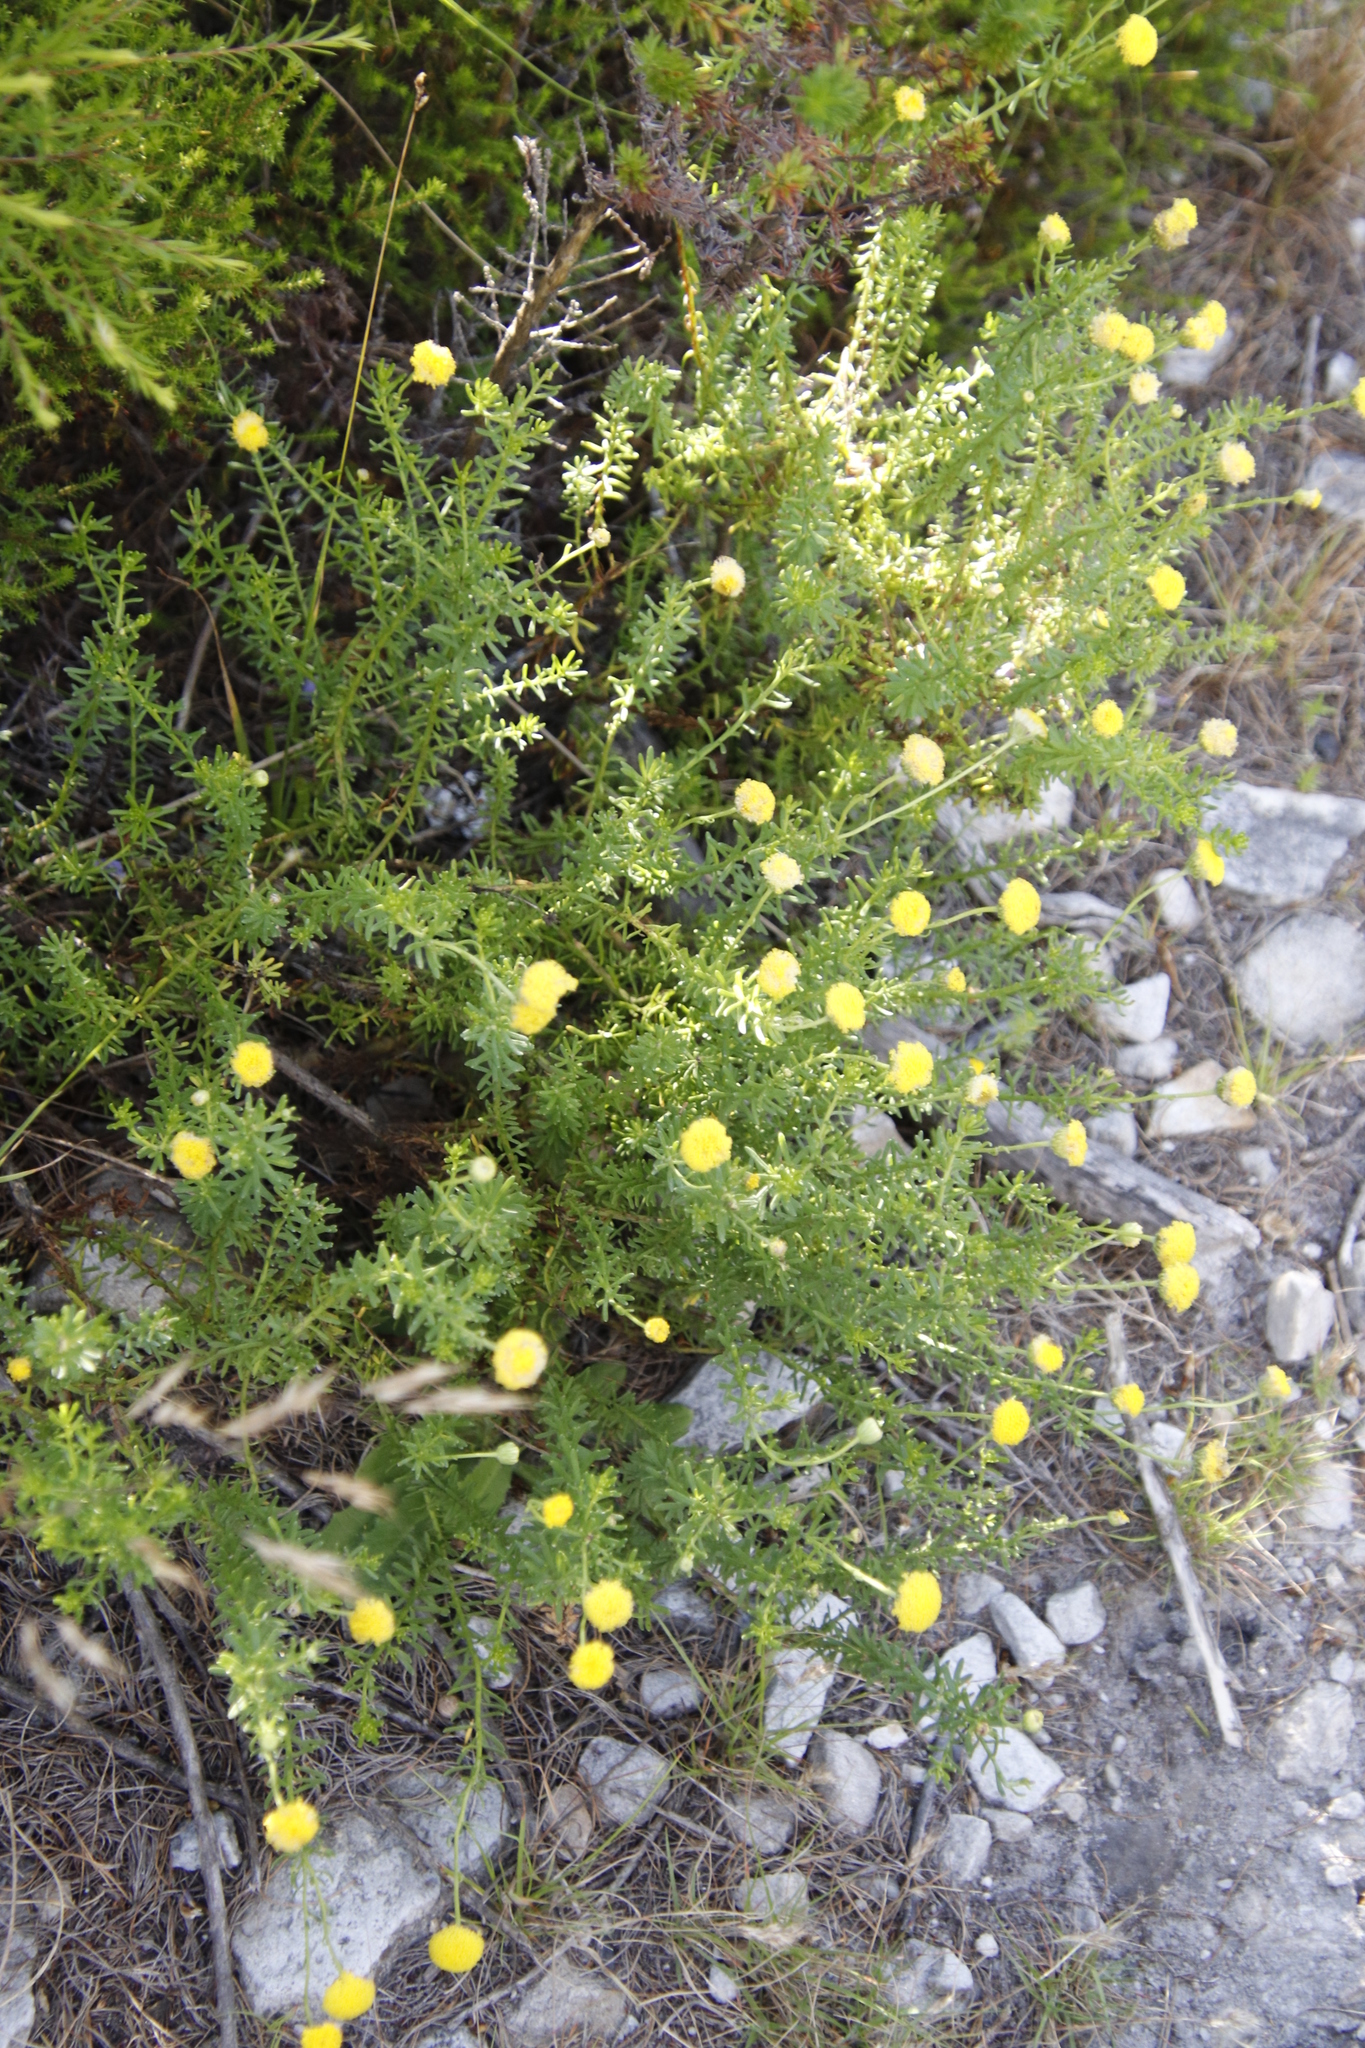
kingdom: Plantae
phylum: Tracheophyta
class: Magnoliopsida
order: Asterales
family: Asteraceae
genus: Chrysocoma
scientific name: Chrysocoma cernua
